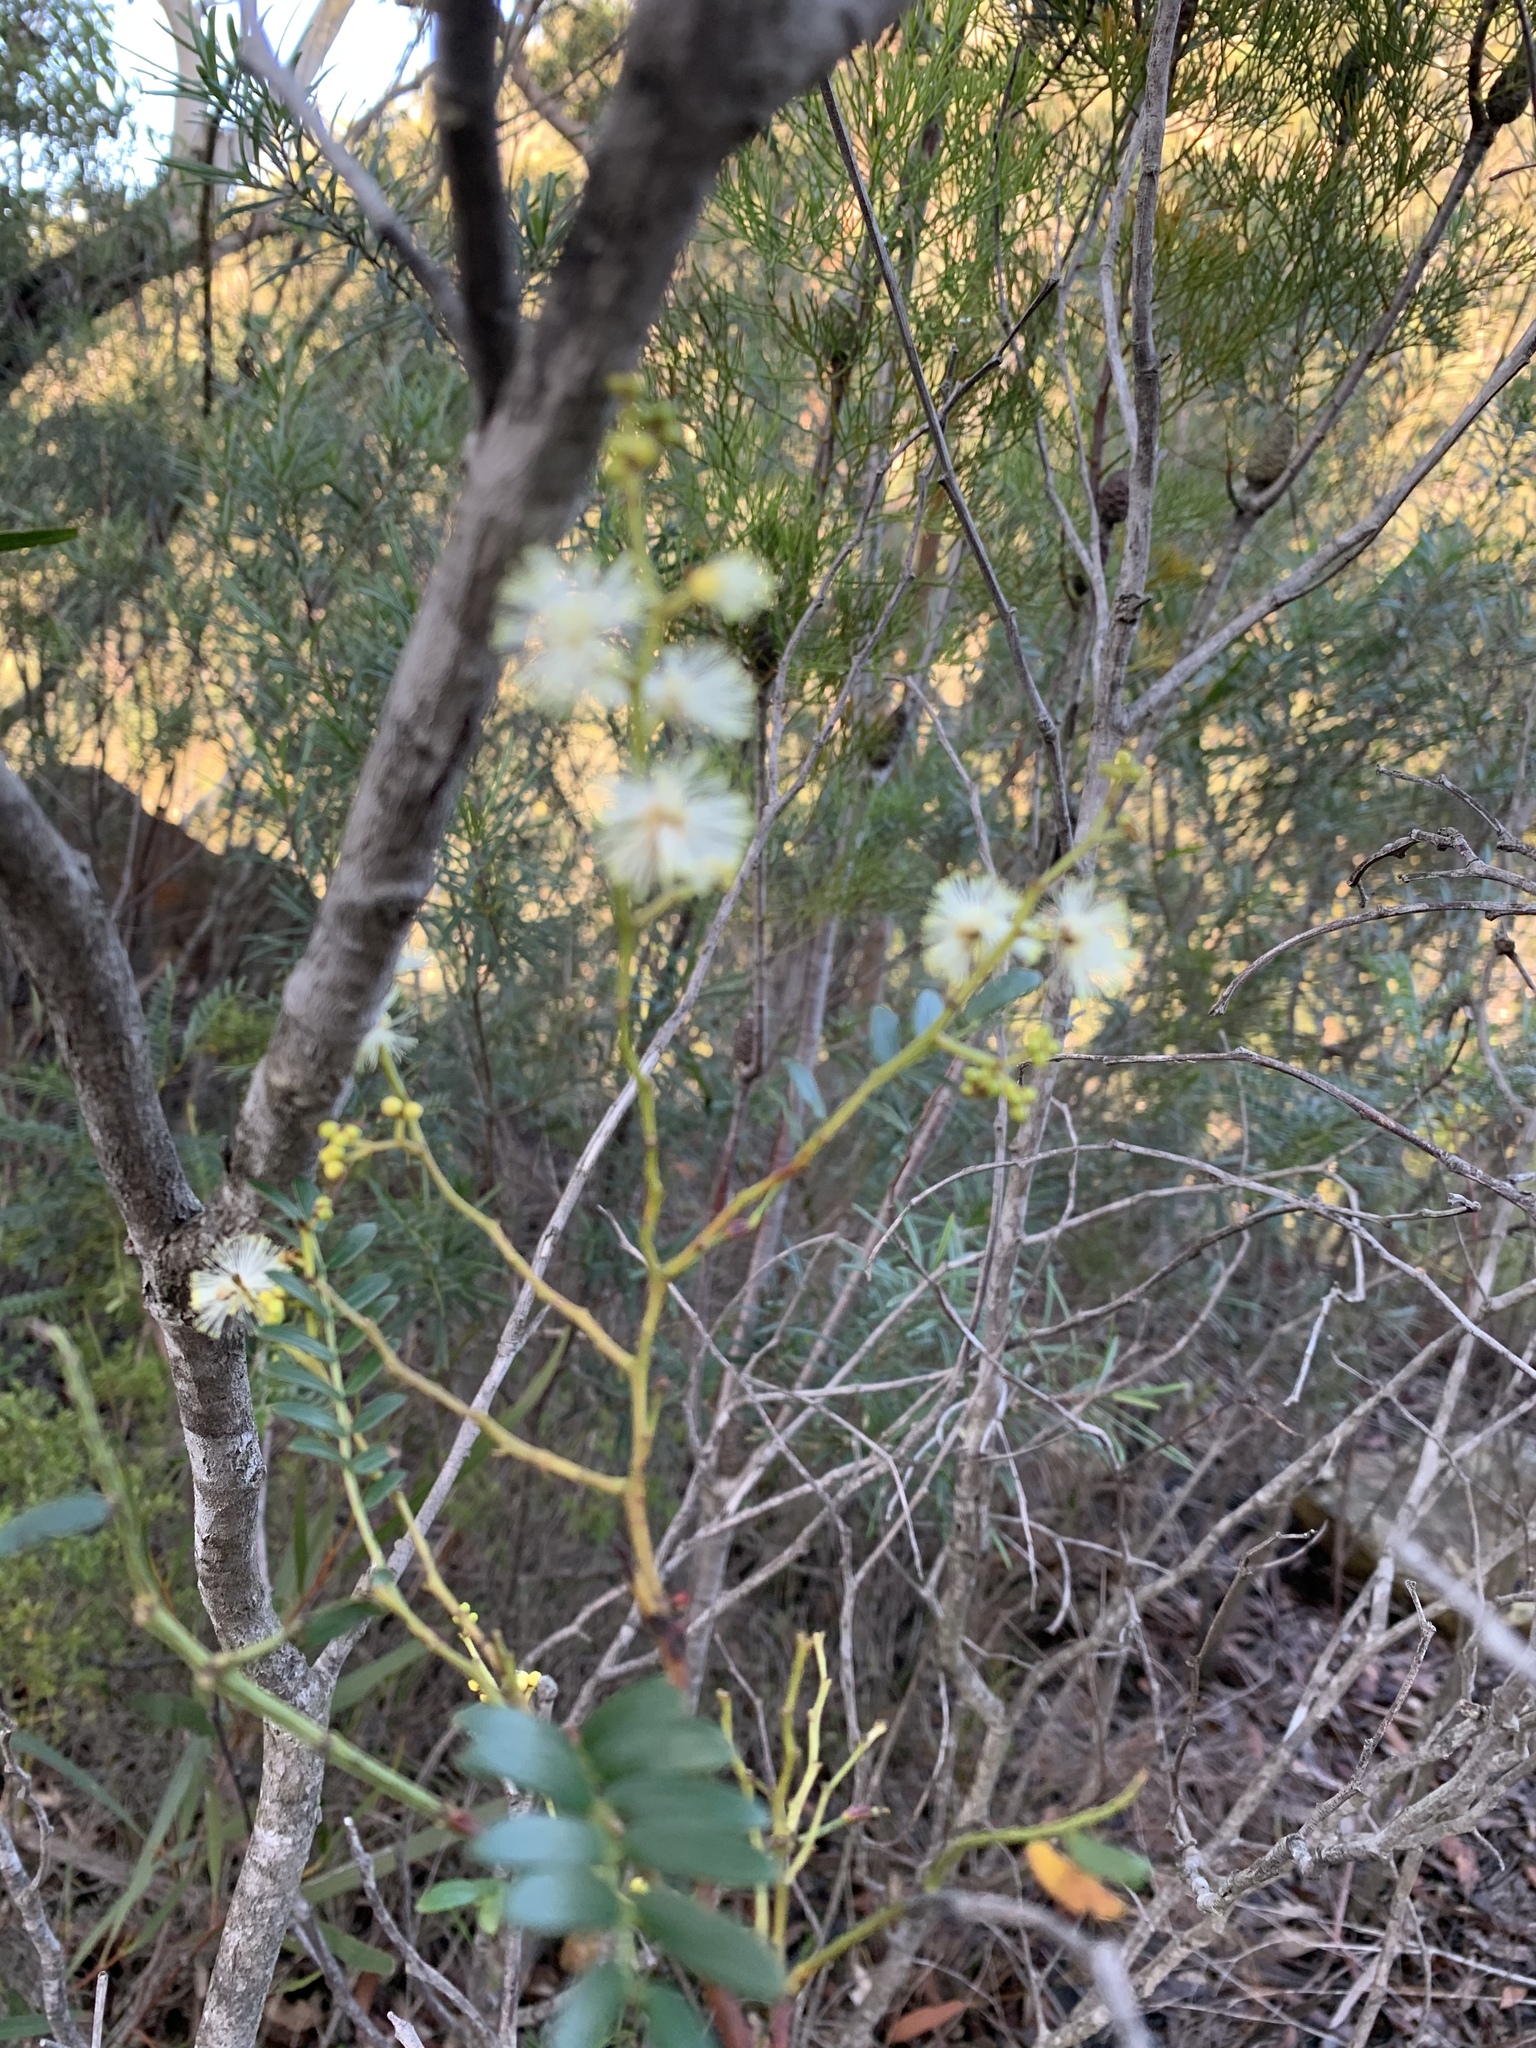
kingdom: Plantae
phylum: Tracheophyta
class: Magnoliopsida
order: Fabales
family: Fabaceae
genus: Acacia
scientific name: Acacia terminalis
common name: Cedar wattle
